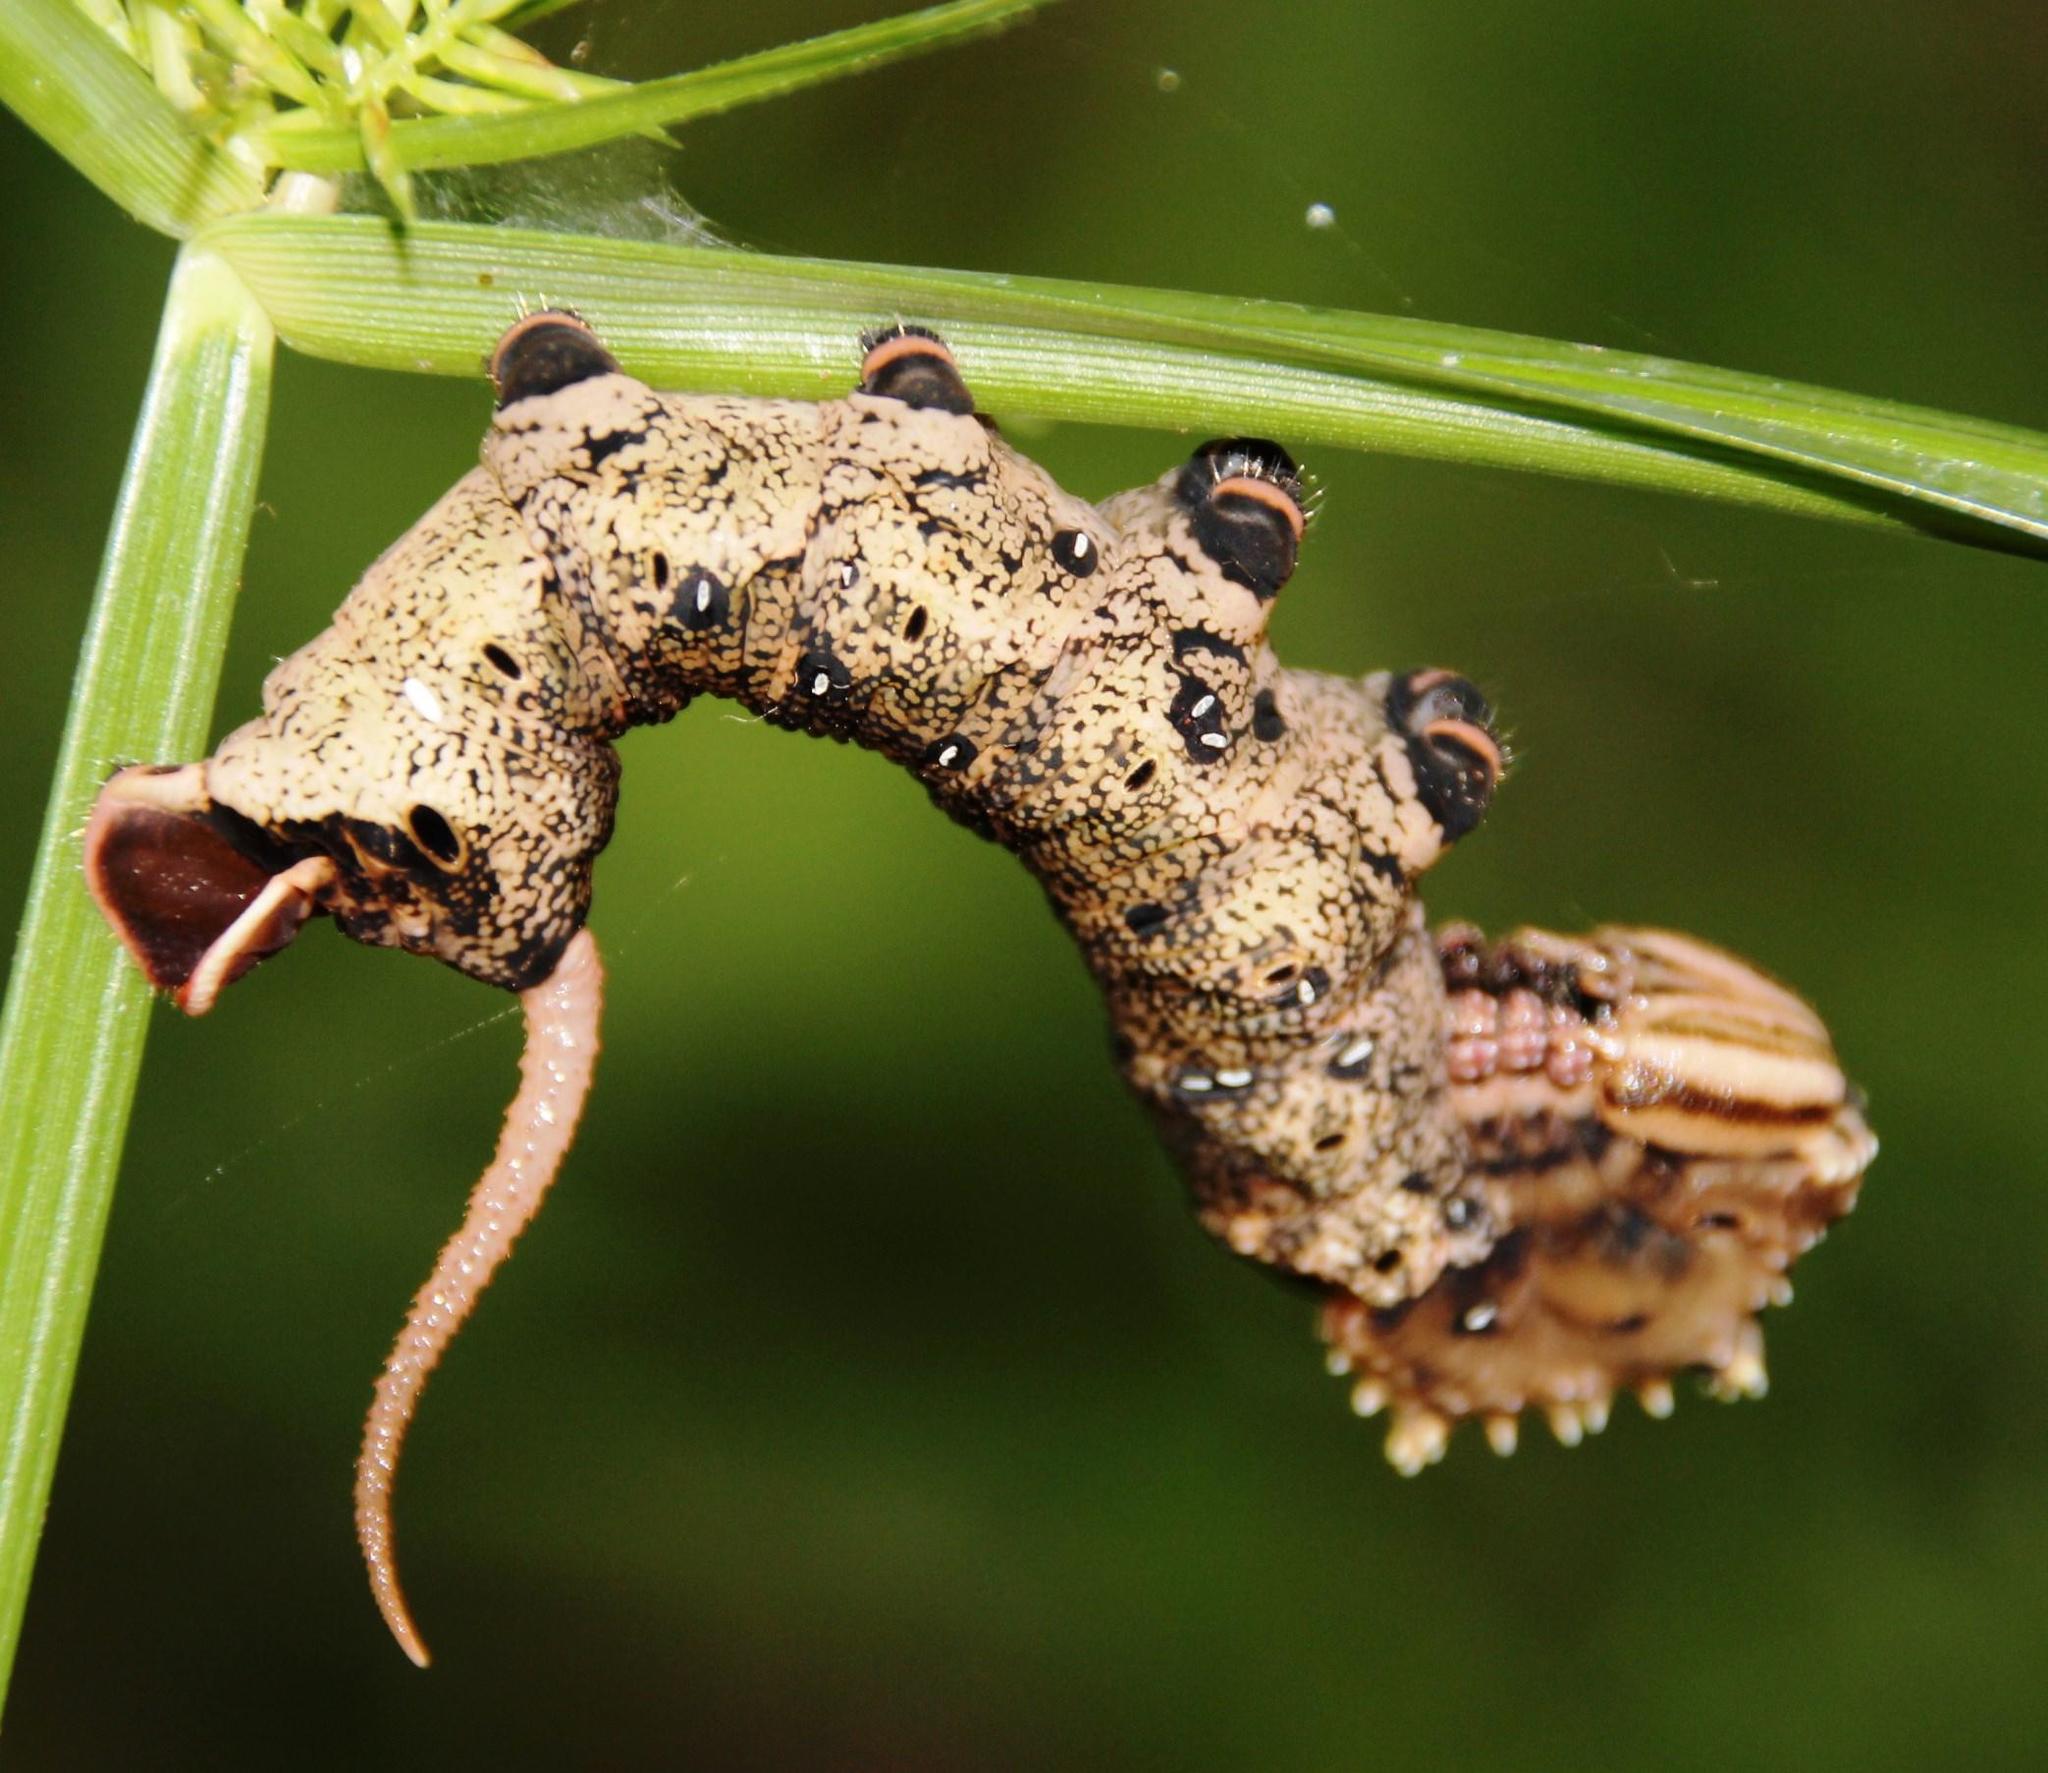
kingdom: Animalia
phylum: Arthropoda
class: Insecta
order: Lepidoptera
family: Sphingidae
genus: Coelonia
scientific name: Coelonia fulvinotata
